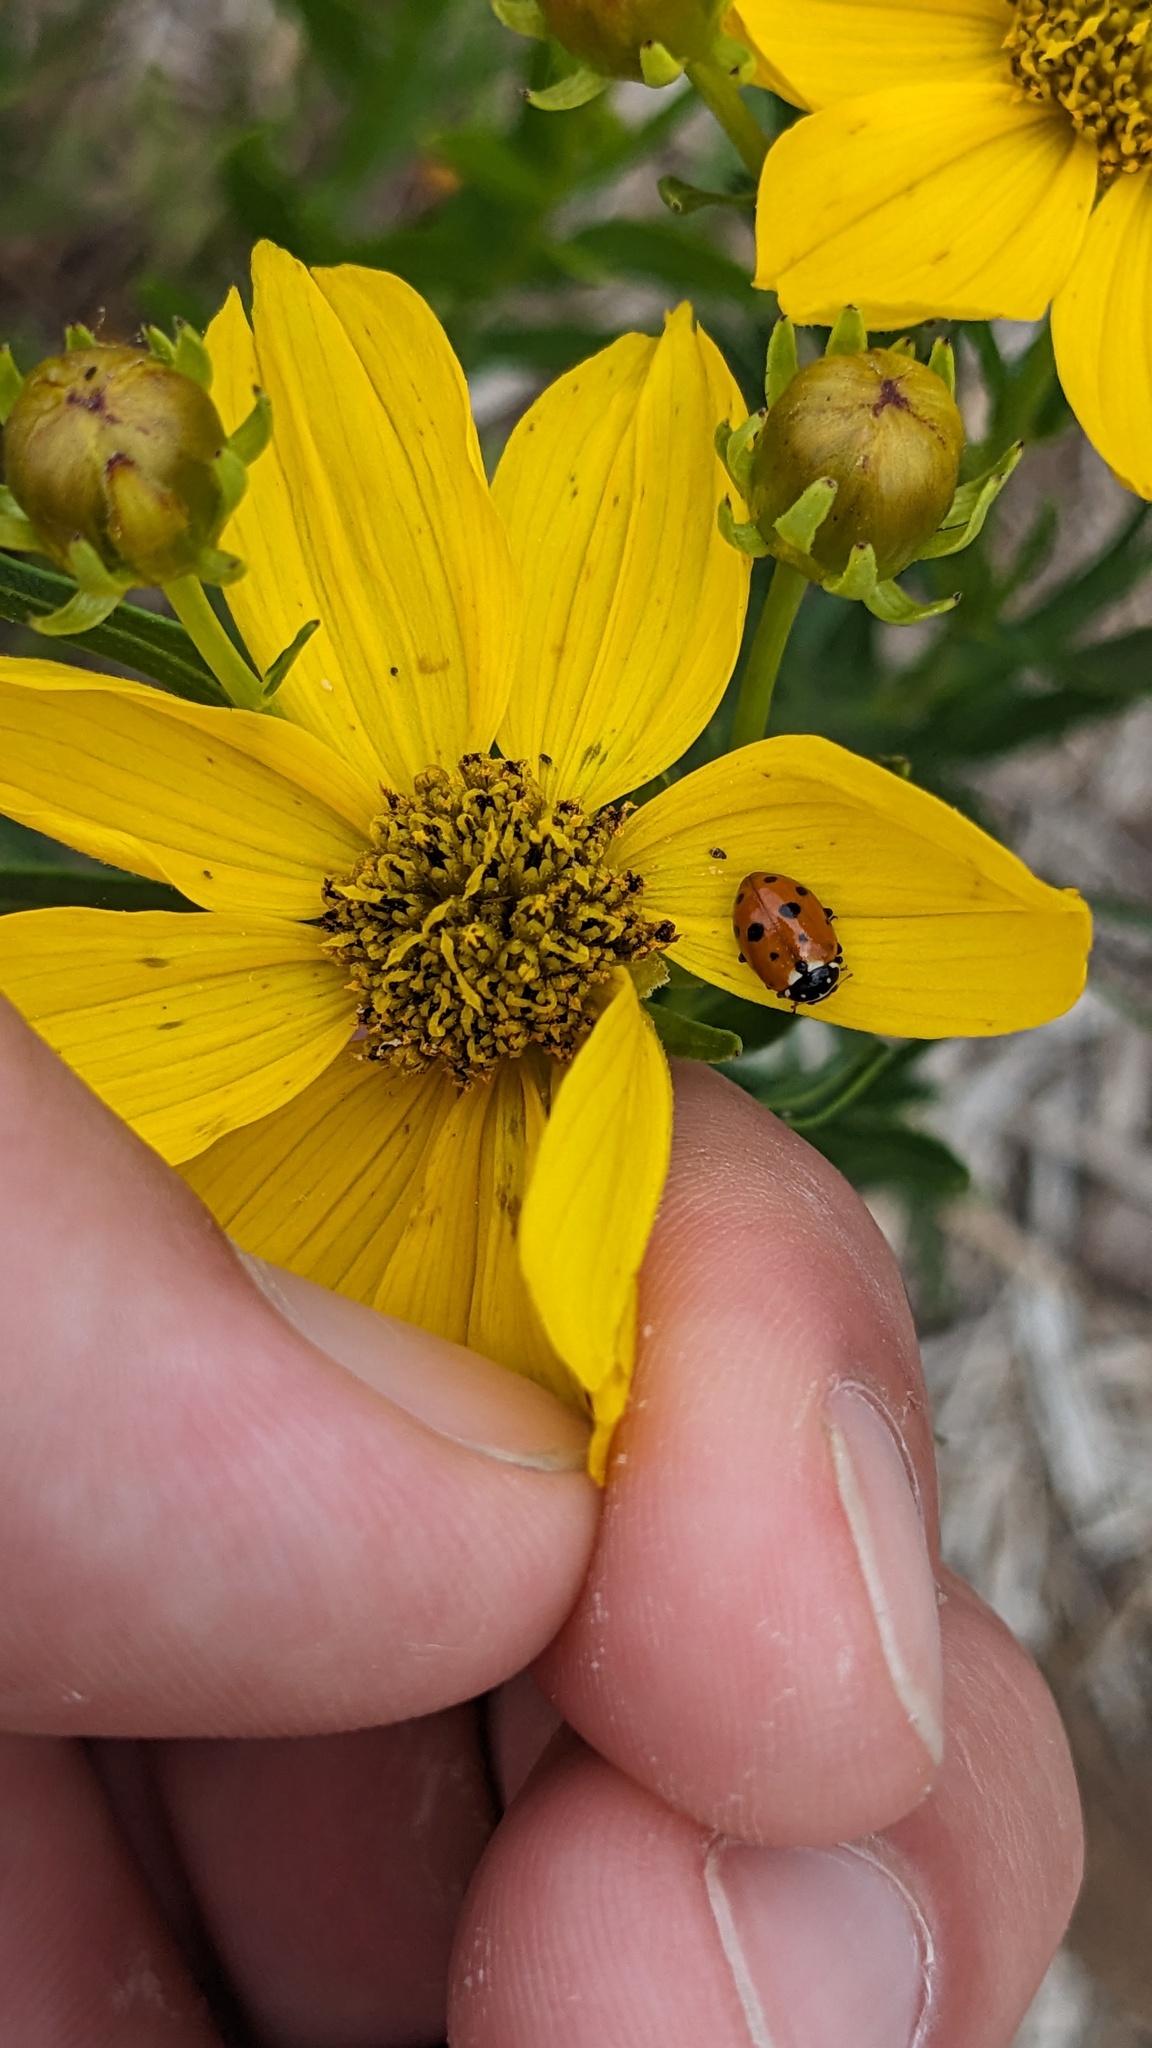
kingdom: Animalia
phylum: Arthropoda
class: Insecta
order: Coleoptera
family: Coccinellidae
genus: Hippodamia
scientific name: Hippodamia variegata
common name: Ladybird beetle
